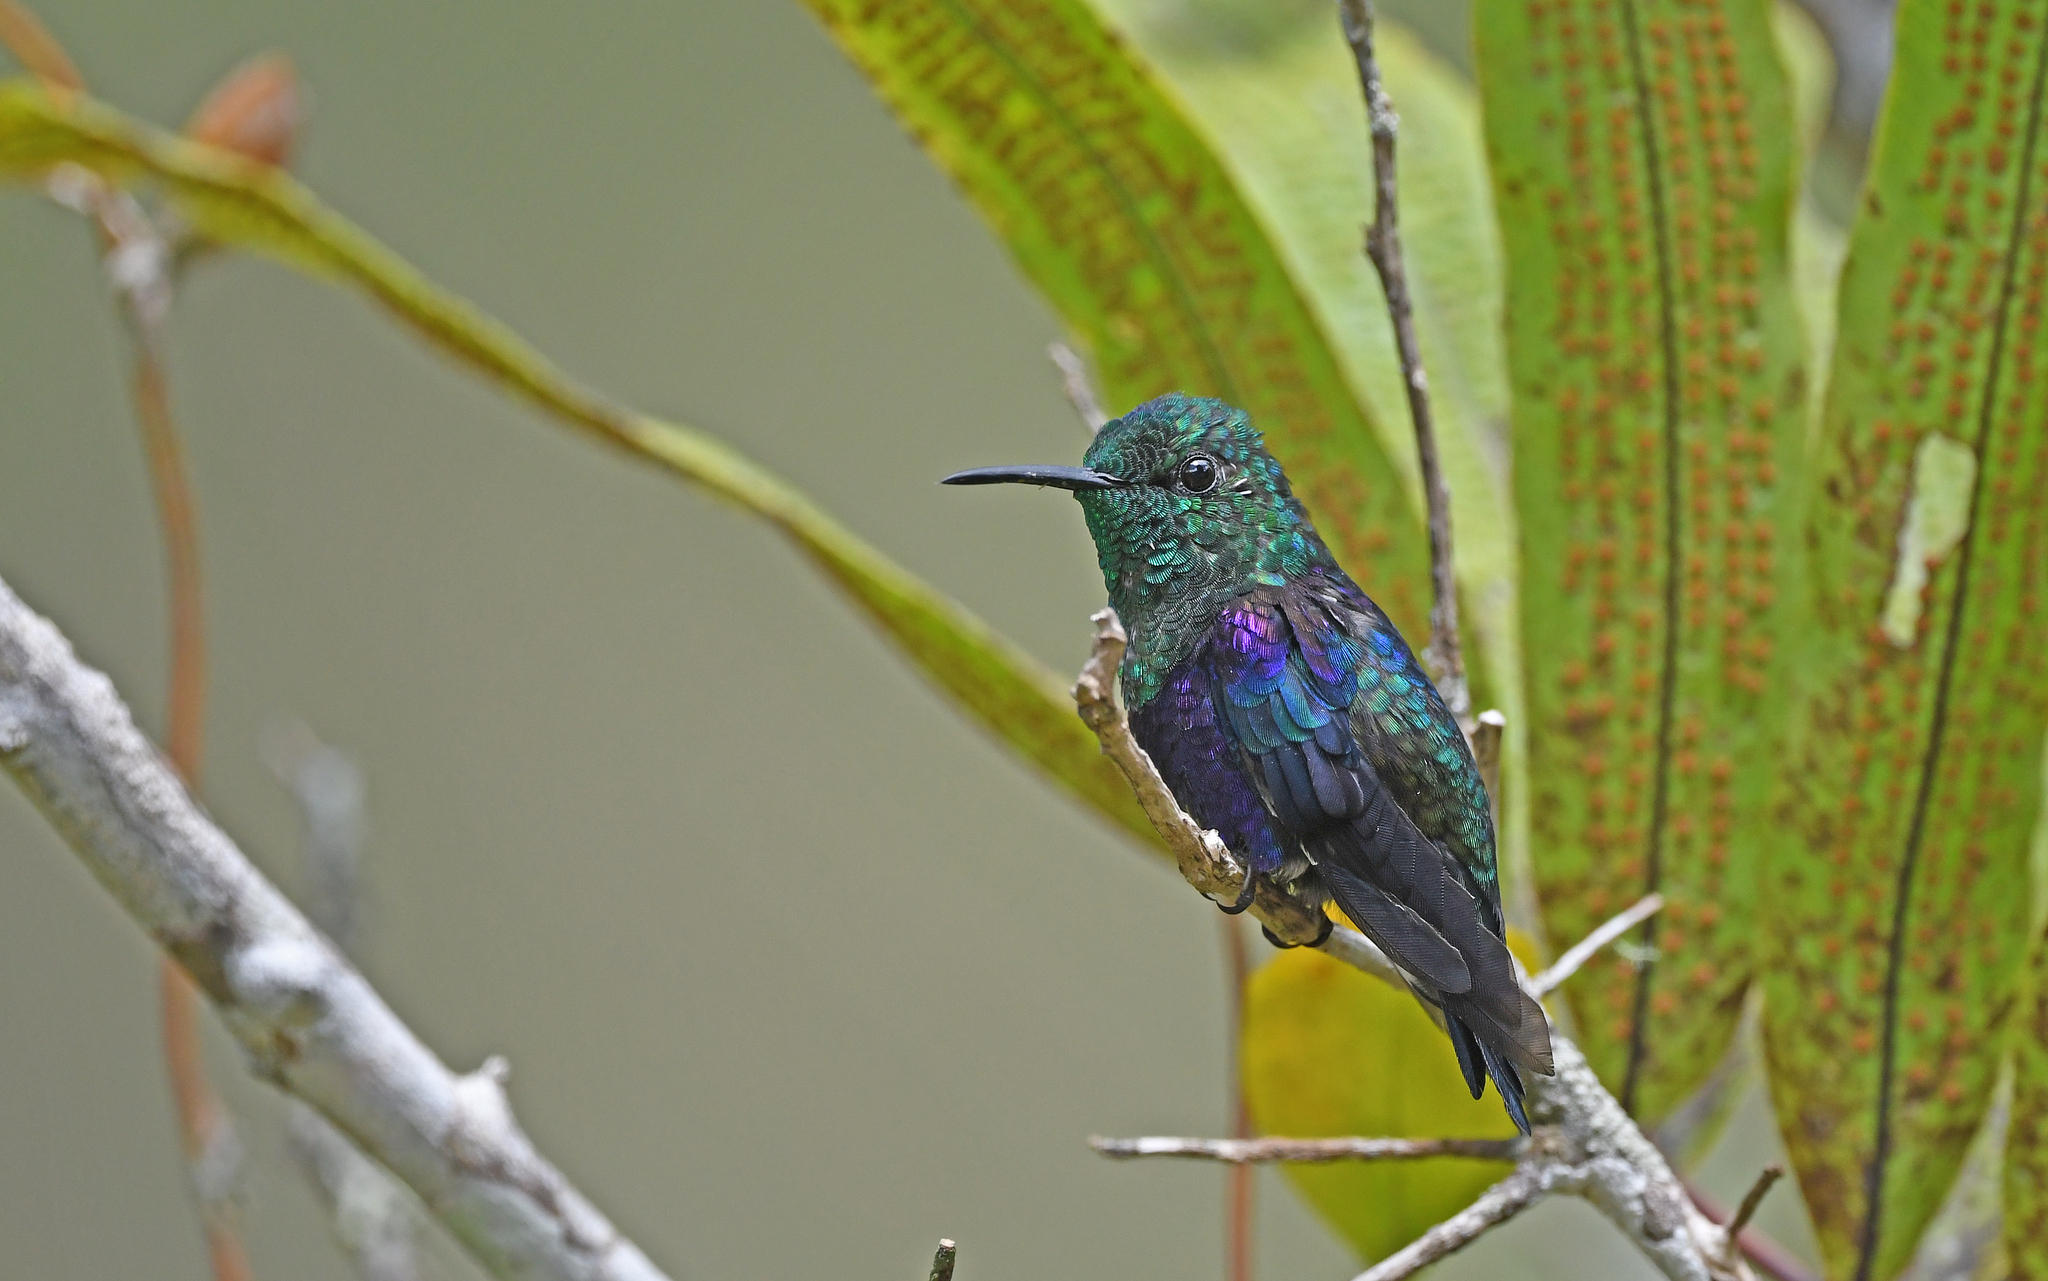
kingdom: Animalia
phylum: Chordata
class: Aves
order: Apodiformes
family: Trochilidae
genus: Thalurania
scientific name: Thalurania colombica
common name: Crowned woodnymph
